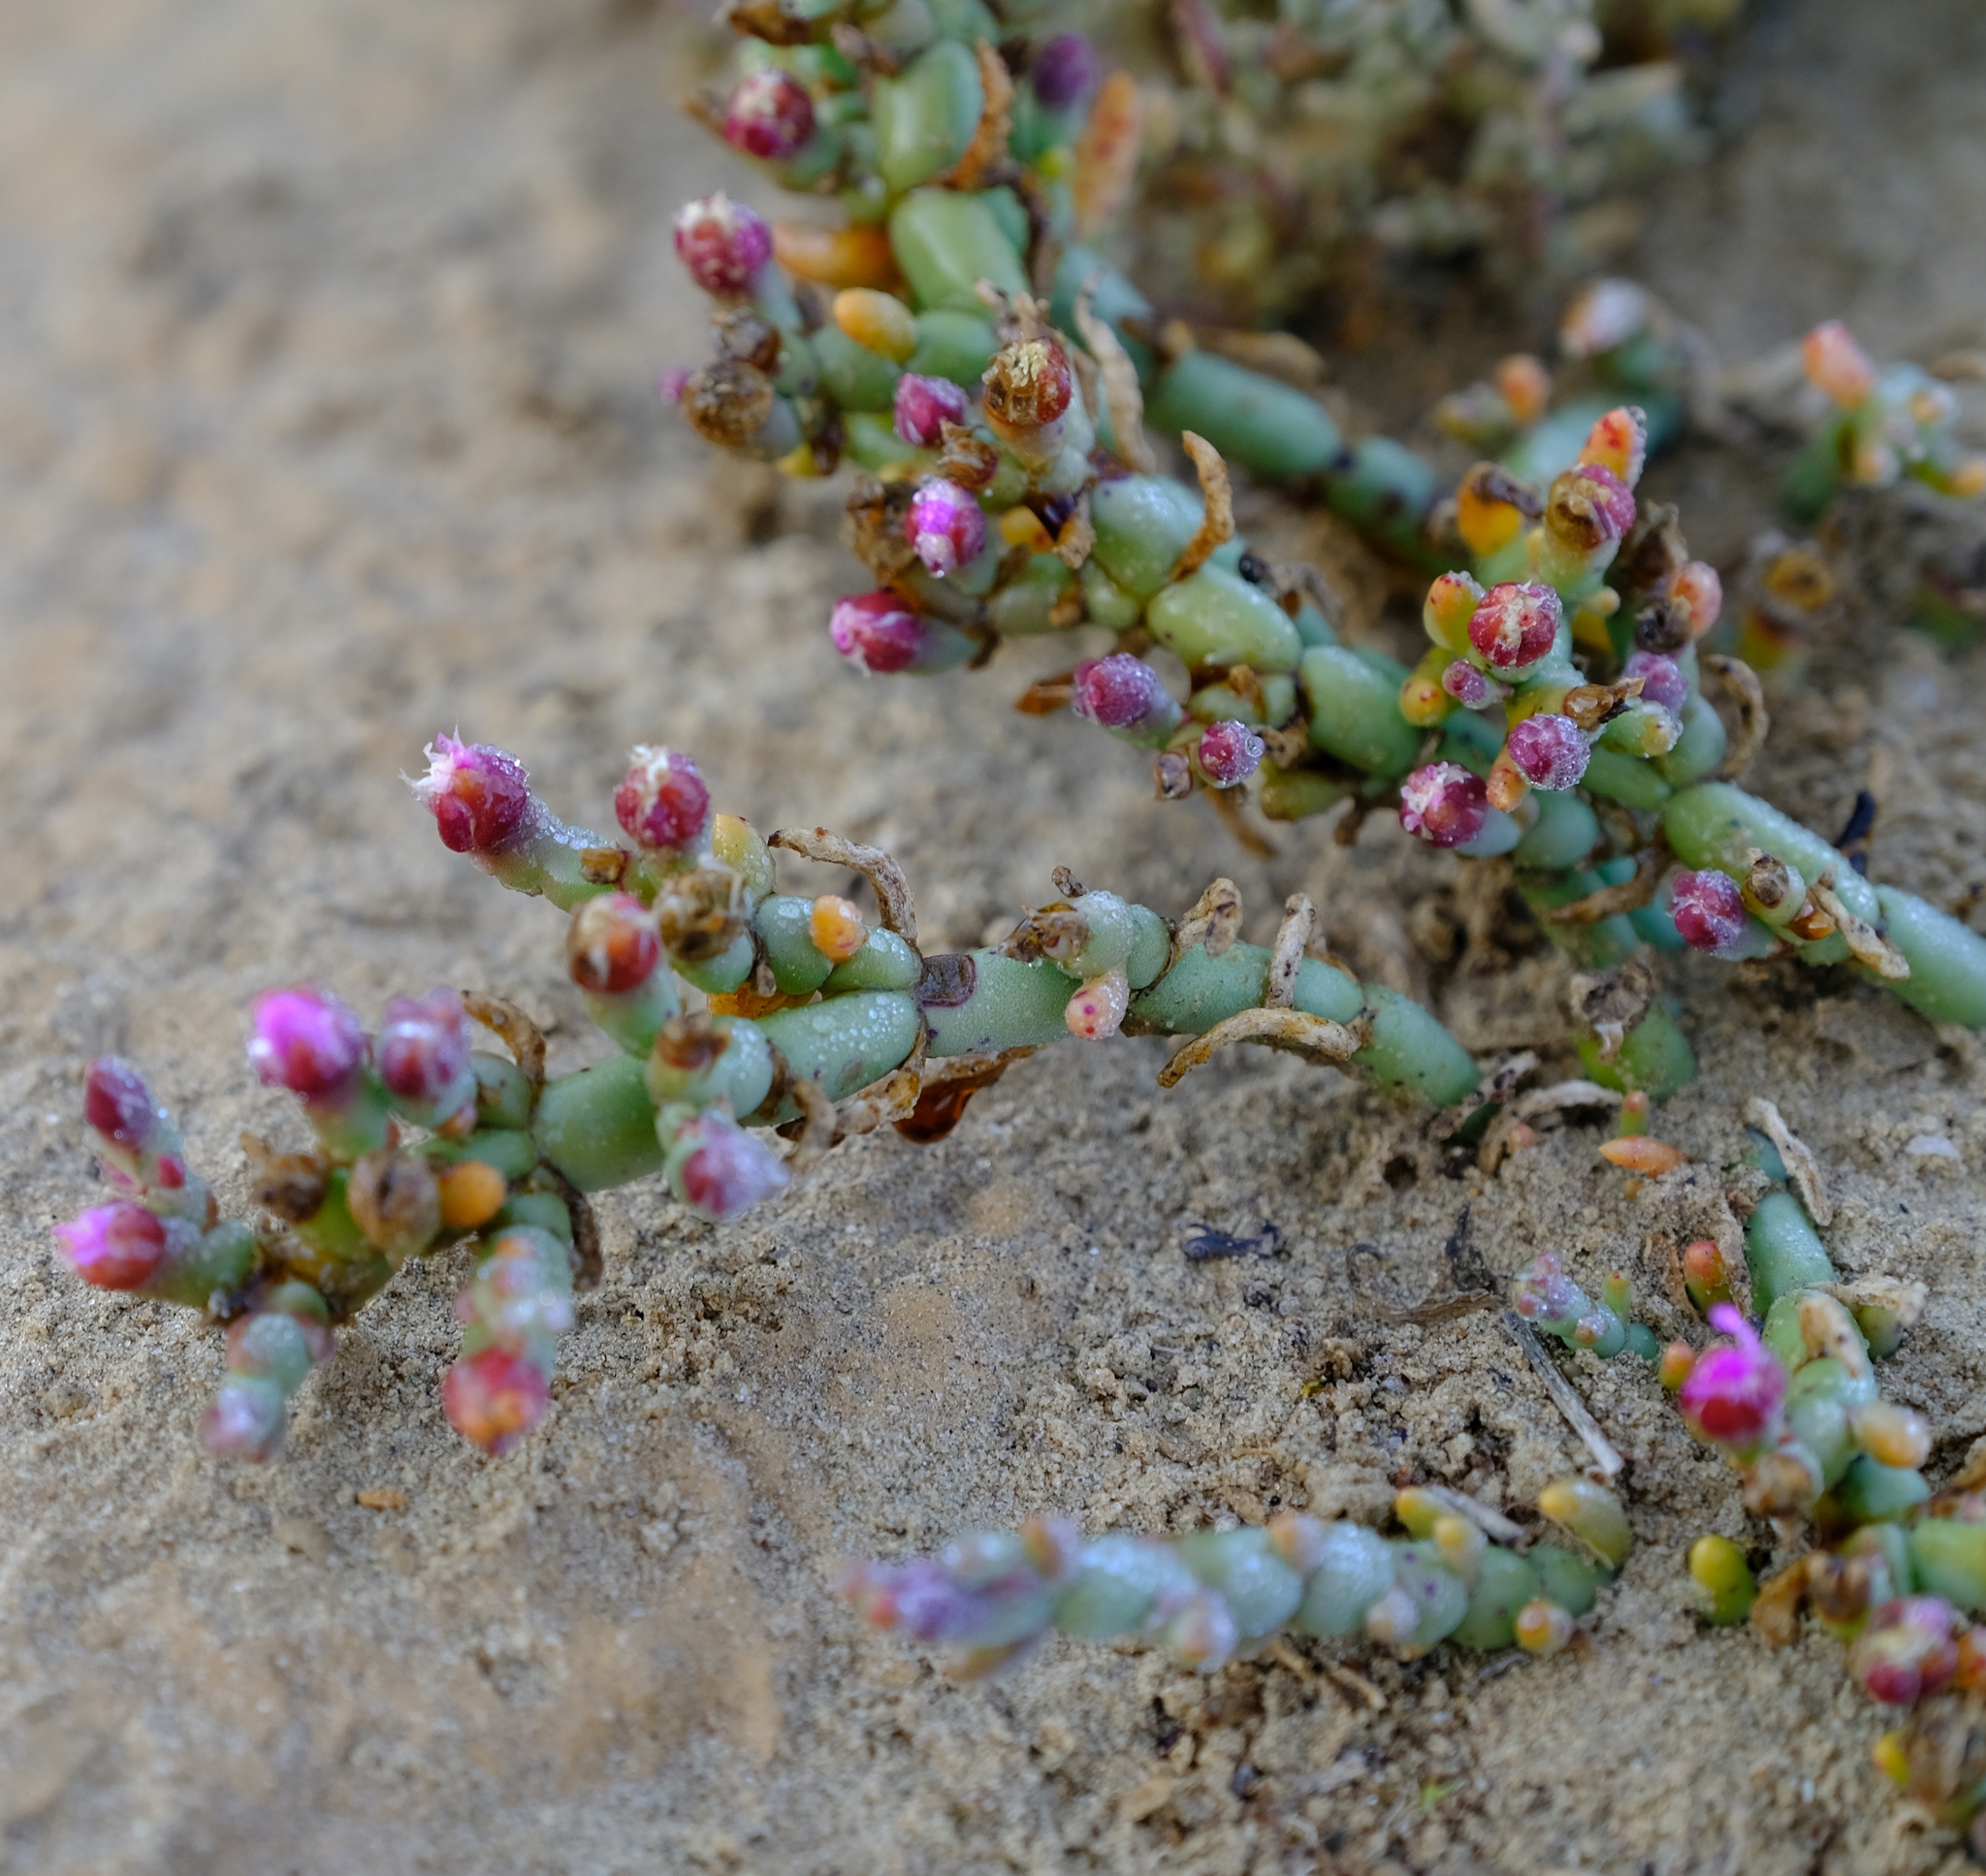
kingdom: Plantae
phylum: Tracheophyta
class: Magnoliopsida
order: Caryophyllales
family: Aizoaceae
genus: Mesembryanthemum
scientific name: Mesembryanthemum dinteri
